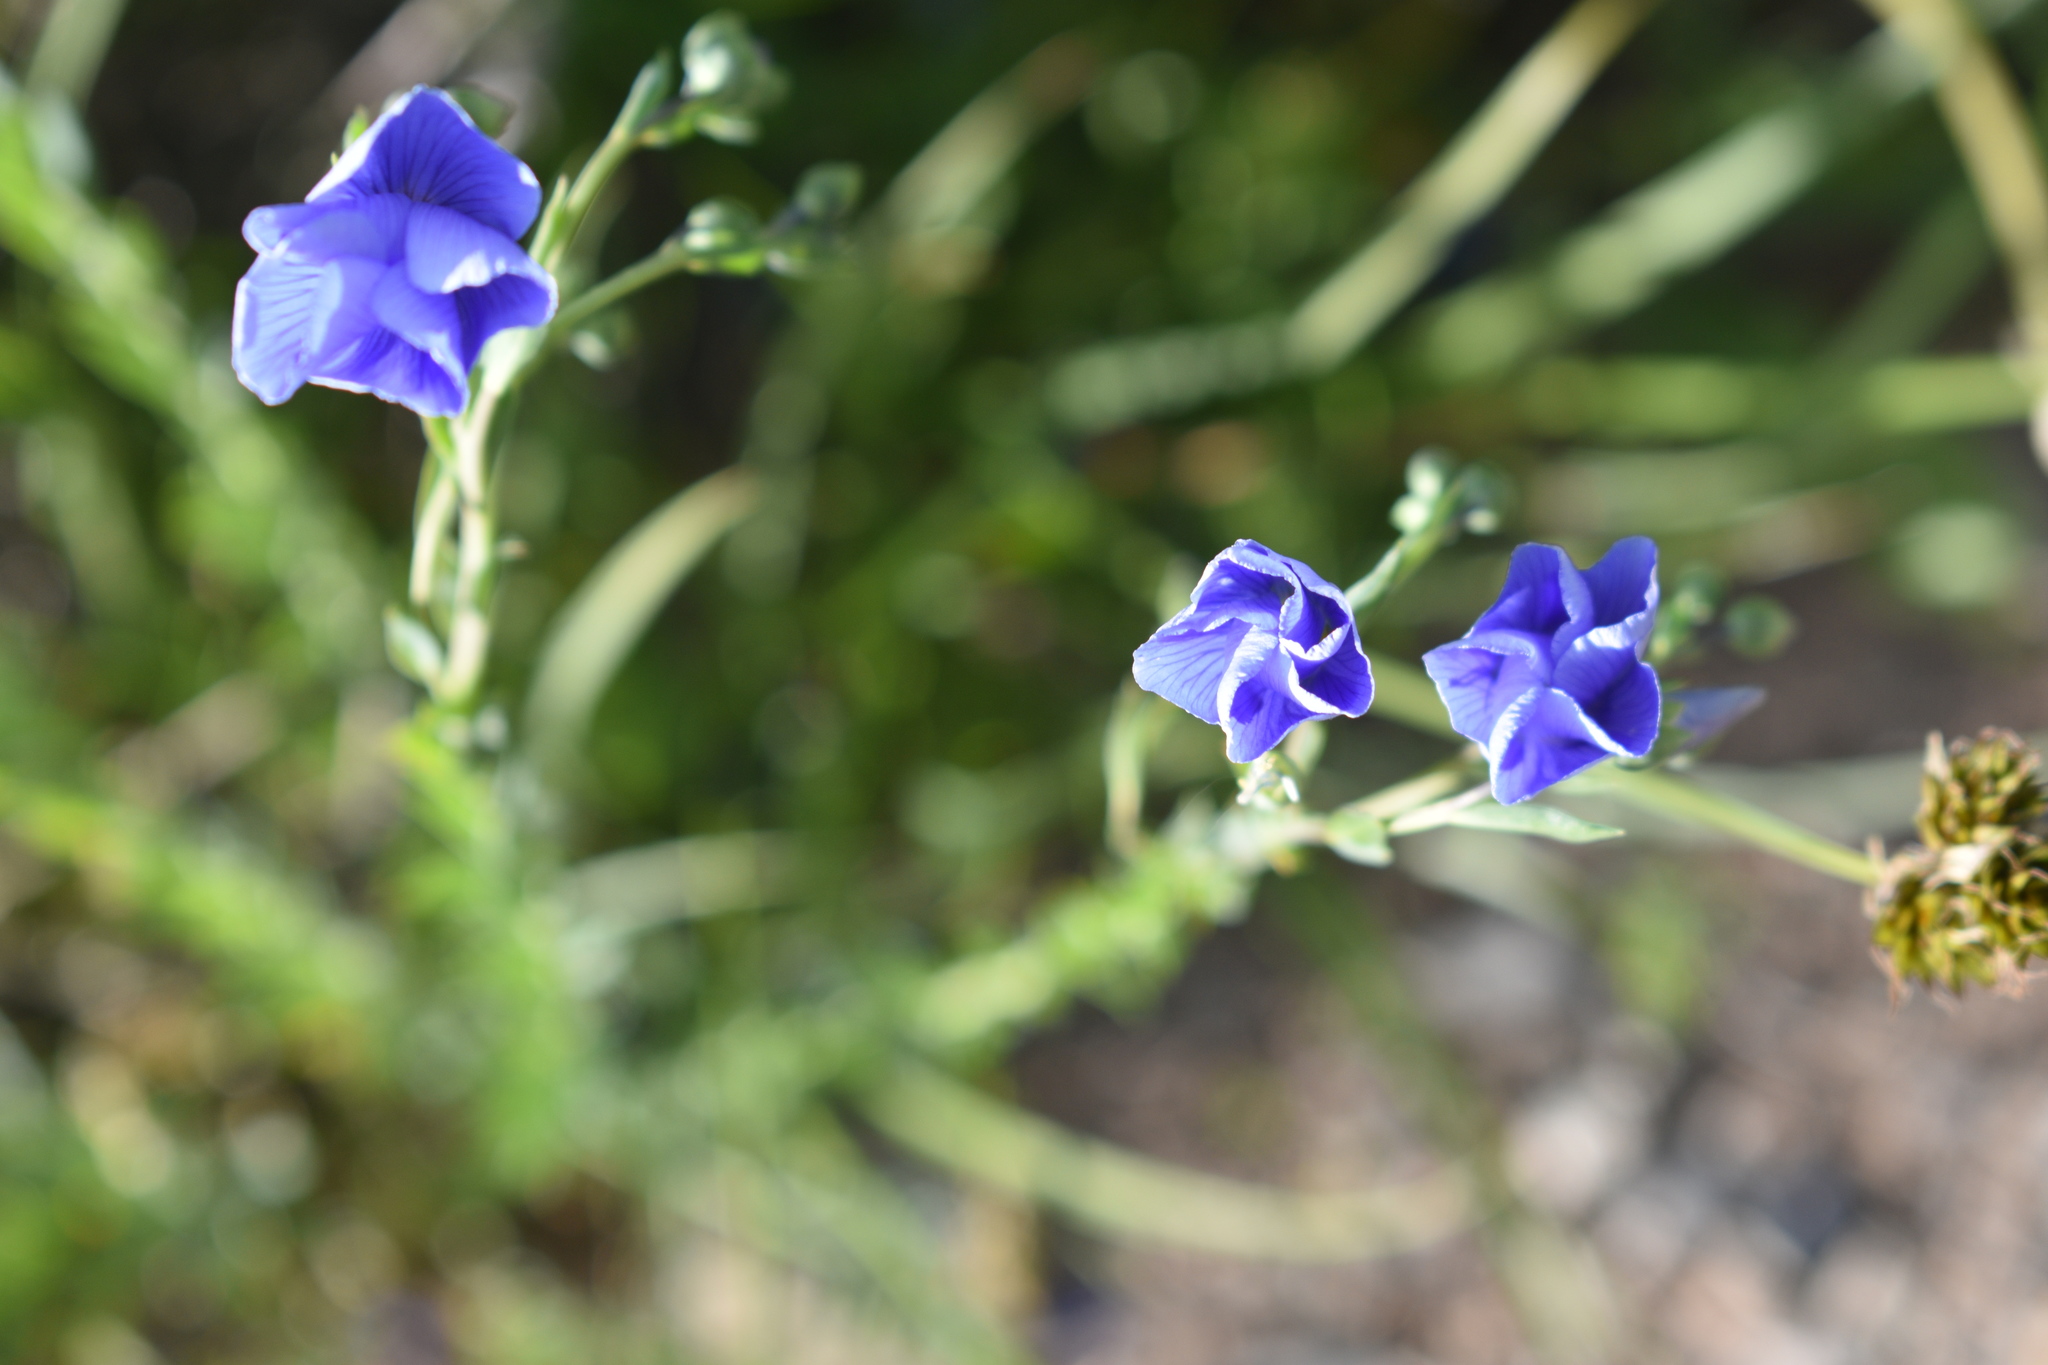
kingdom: Plantae
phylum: Tracheophyta
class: Magnoliopsida
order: Malpighiales
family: Linaceae
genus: Linum
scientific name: Linum lewisii
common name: Prairie flax
